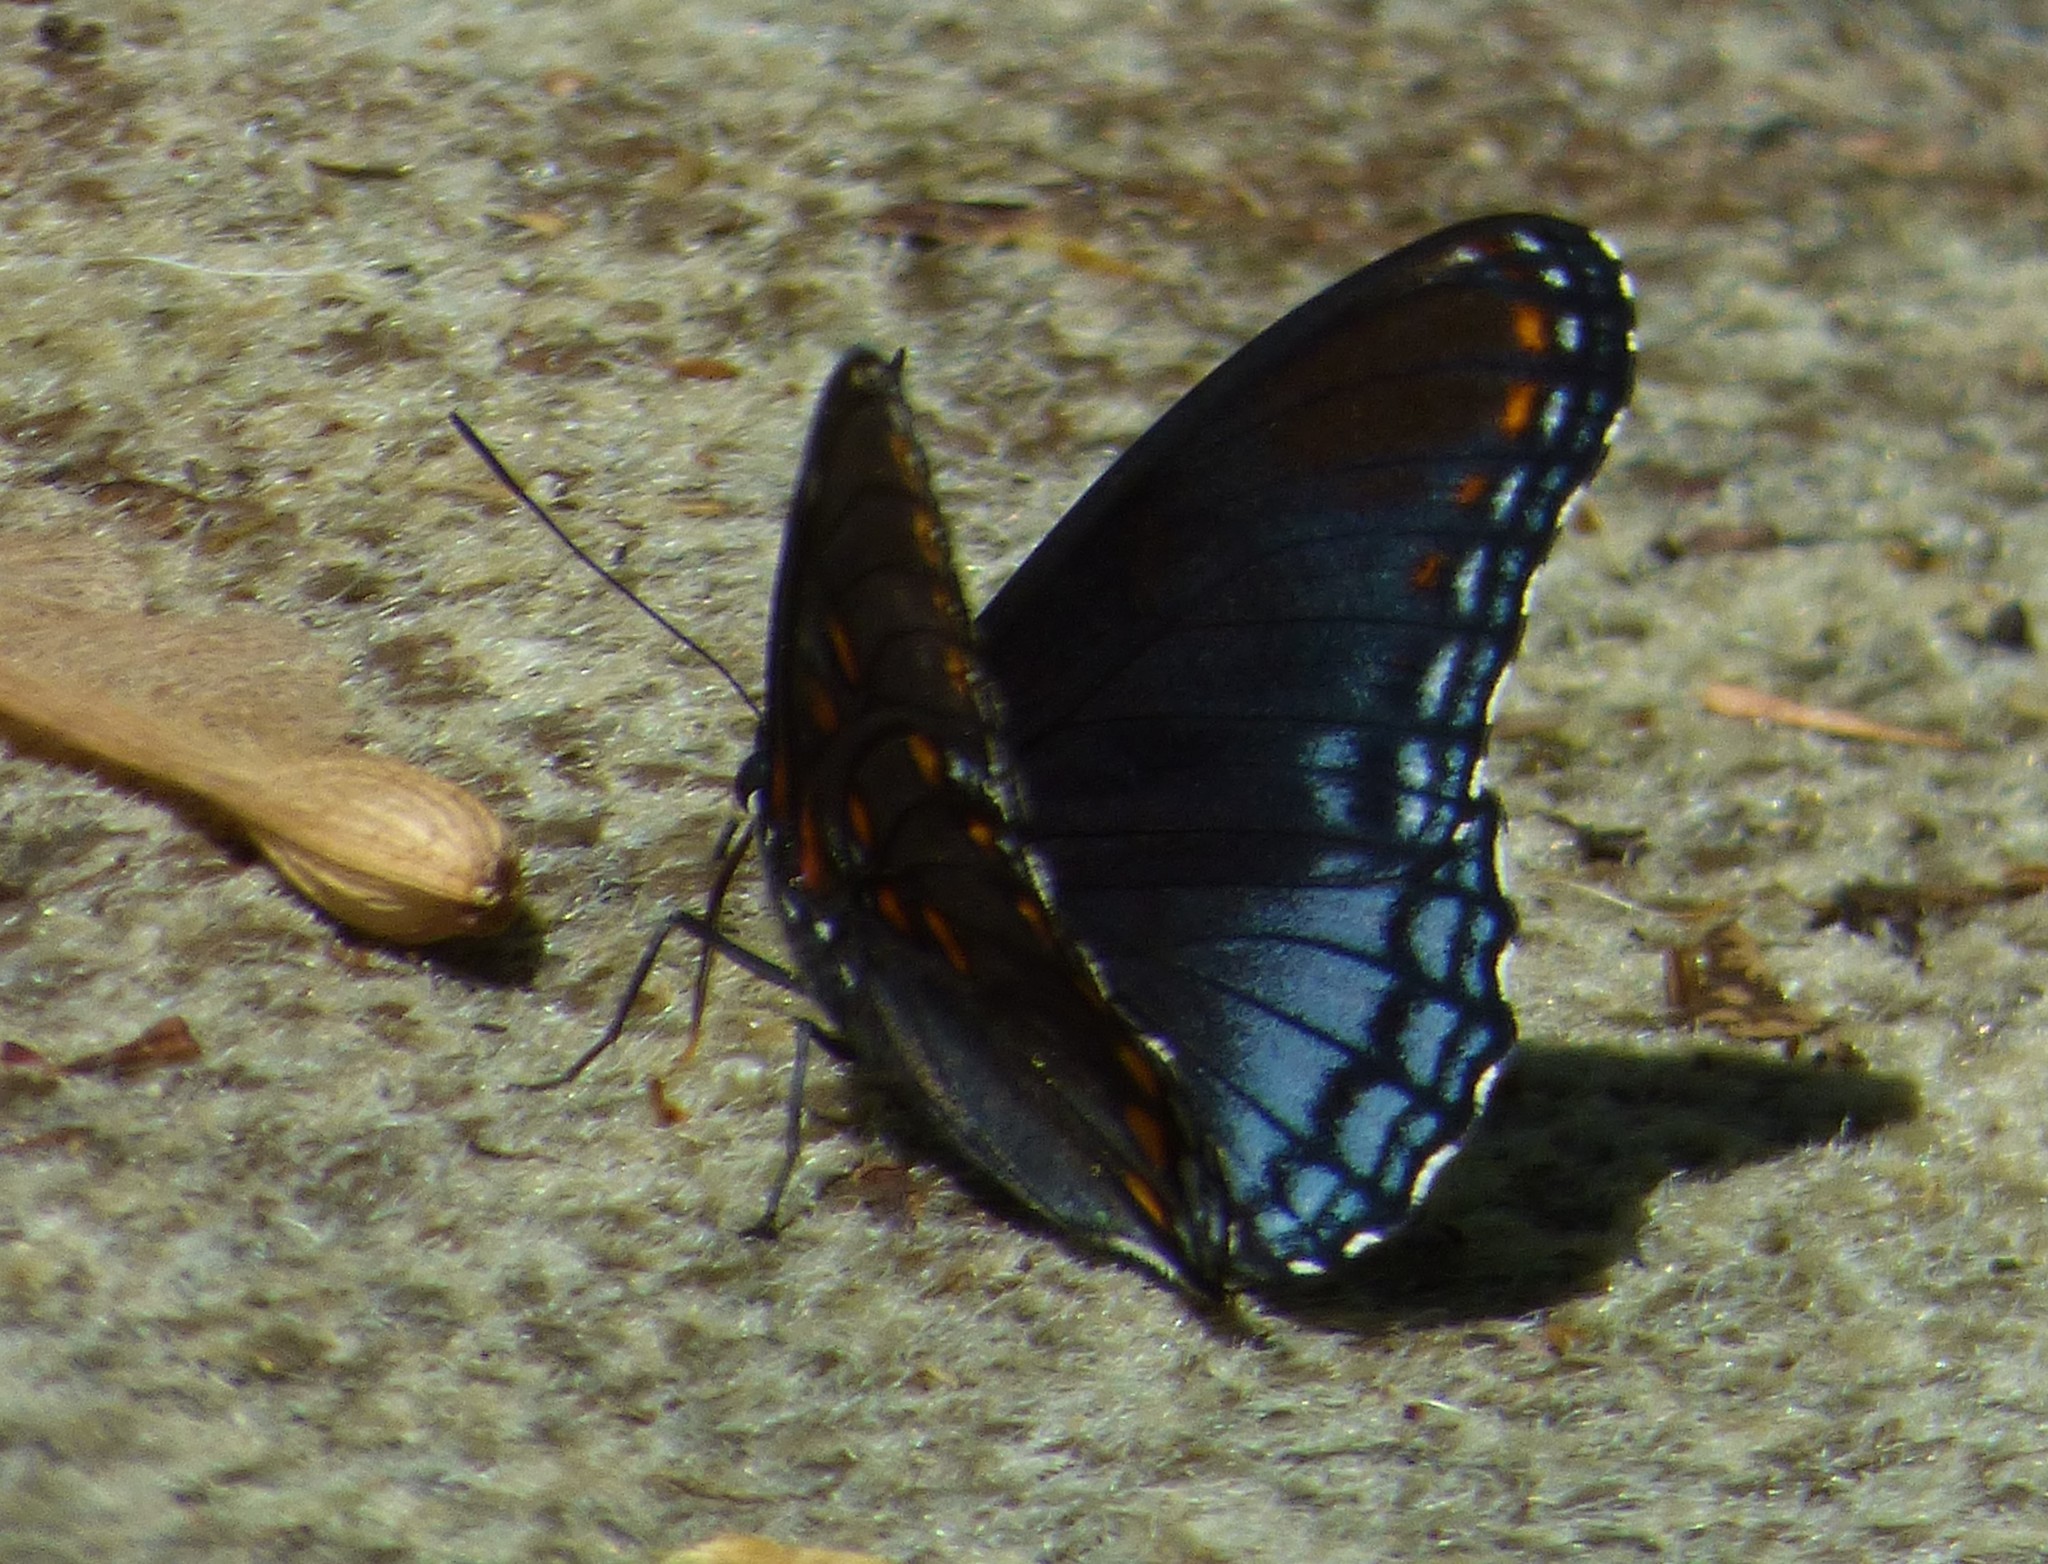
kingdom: Animalia
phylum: Arthropoda
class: Insecta
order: Lepidoptera
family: Nymphalidae
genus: Limenitis
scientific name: Limenitis astyanax
